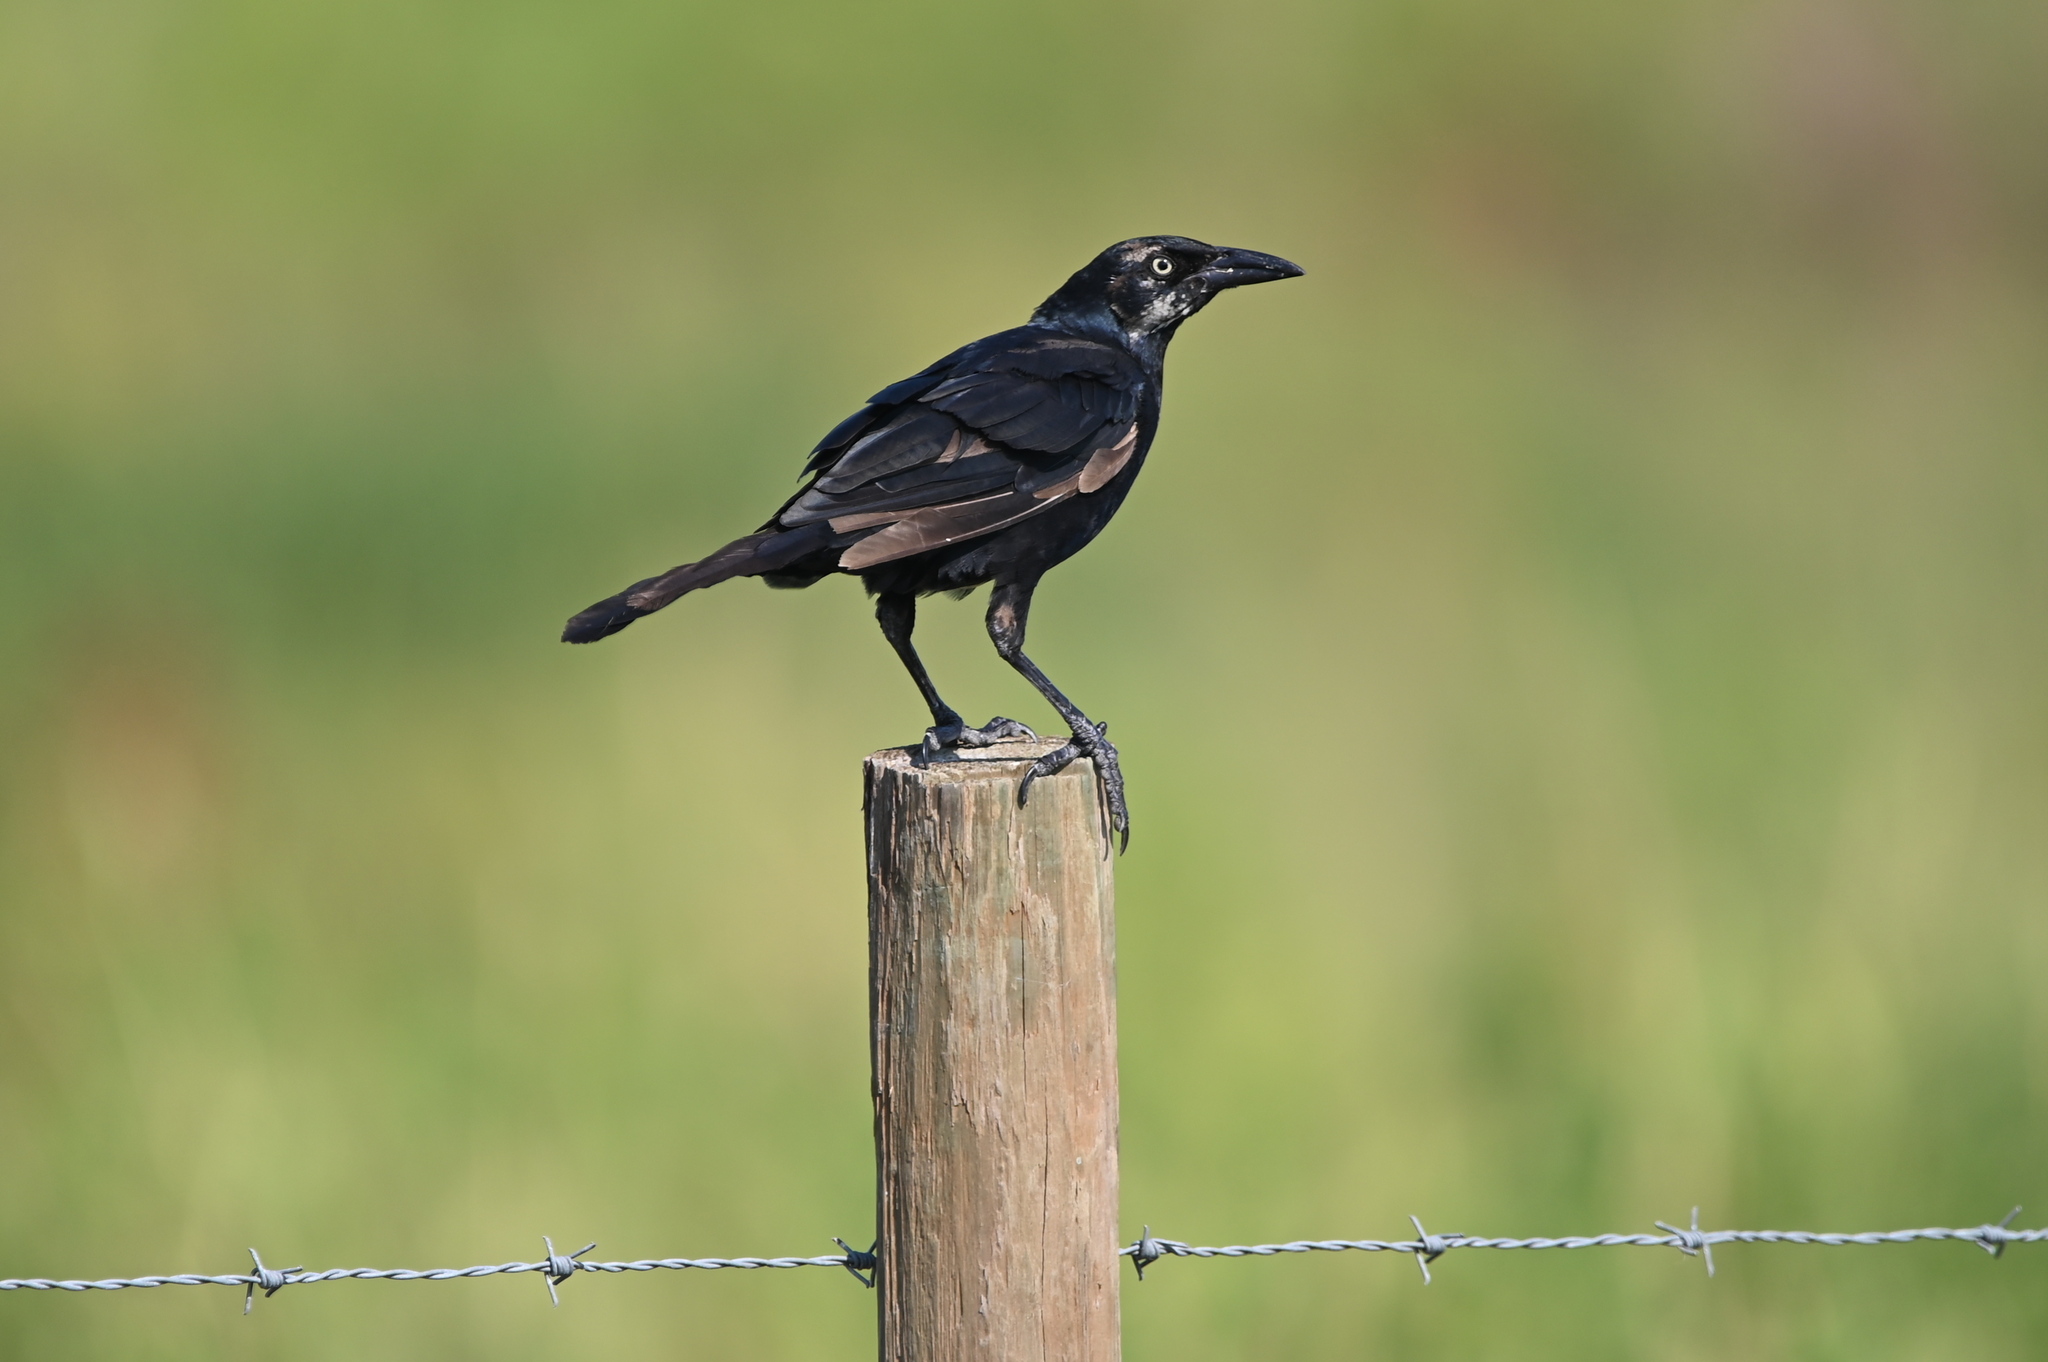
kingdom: Animalia
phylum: Chordata
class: Aves
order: Passeriformes
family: Icteridae
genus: Quiscalus
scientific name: Quiscalus mexicanus
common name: Great-tailed grackle
